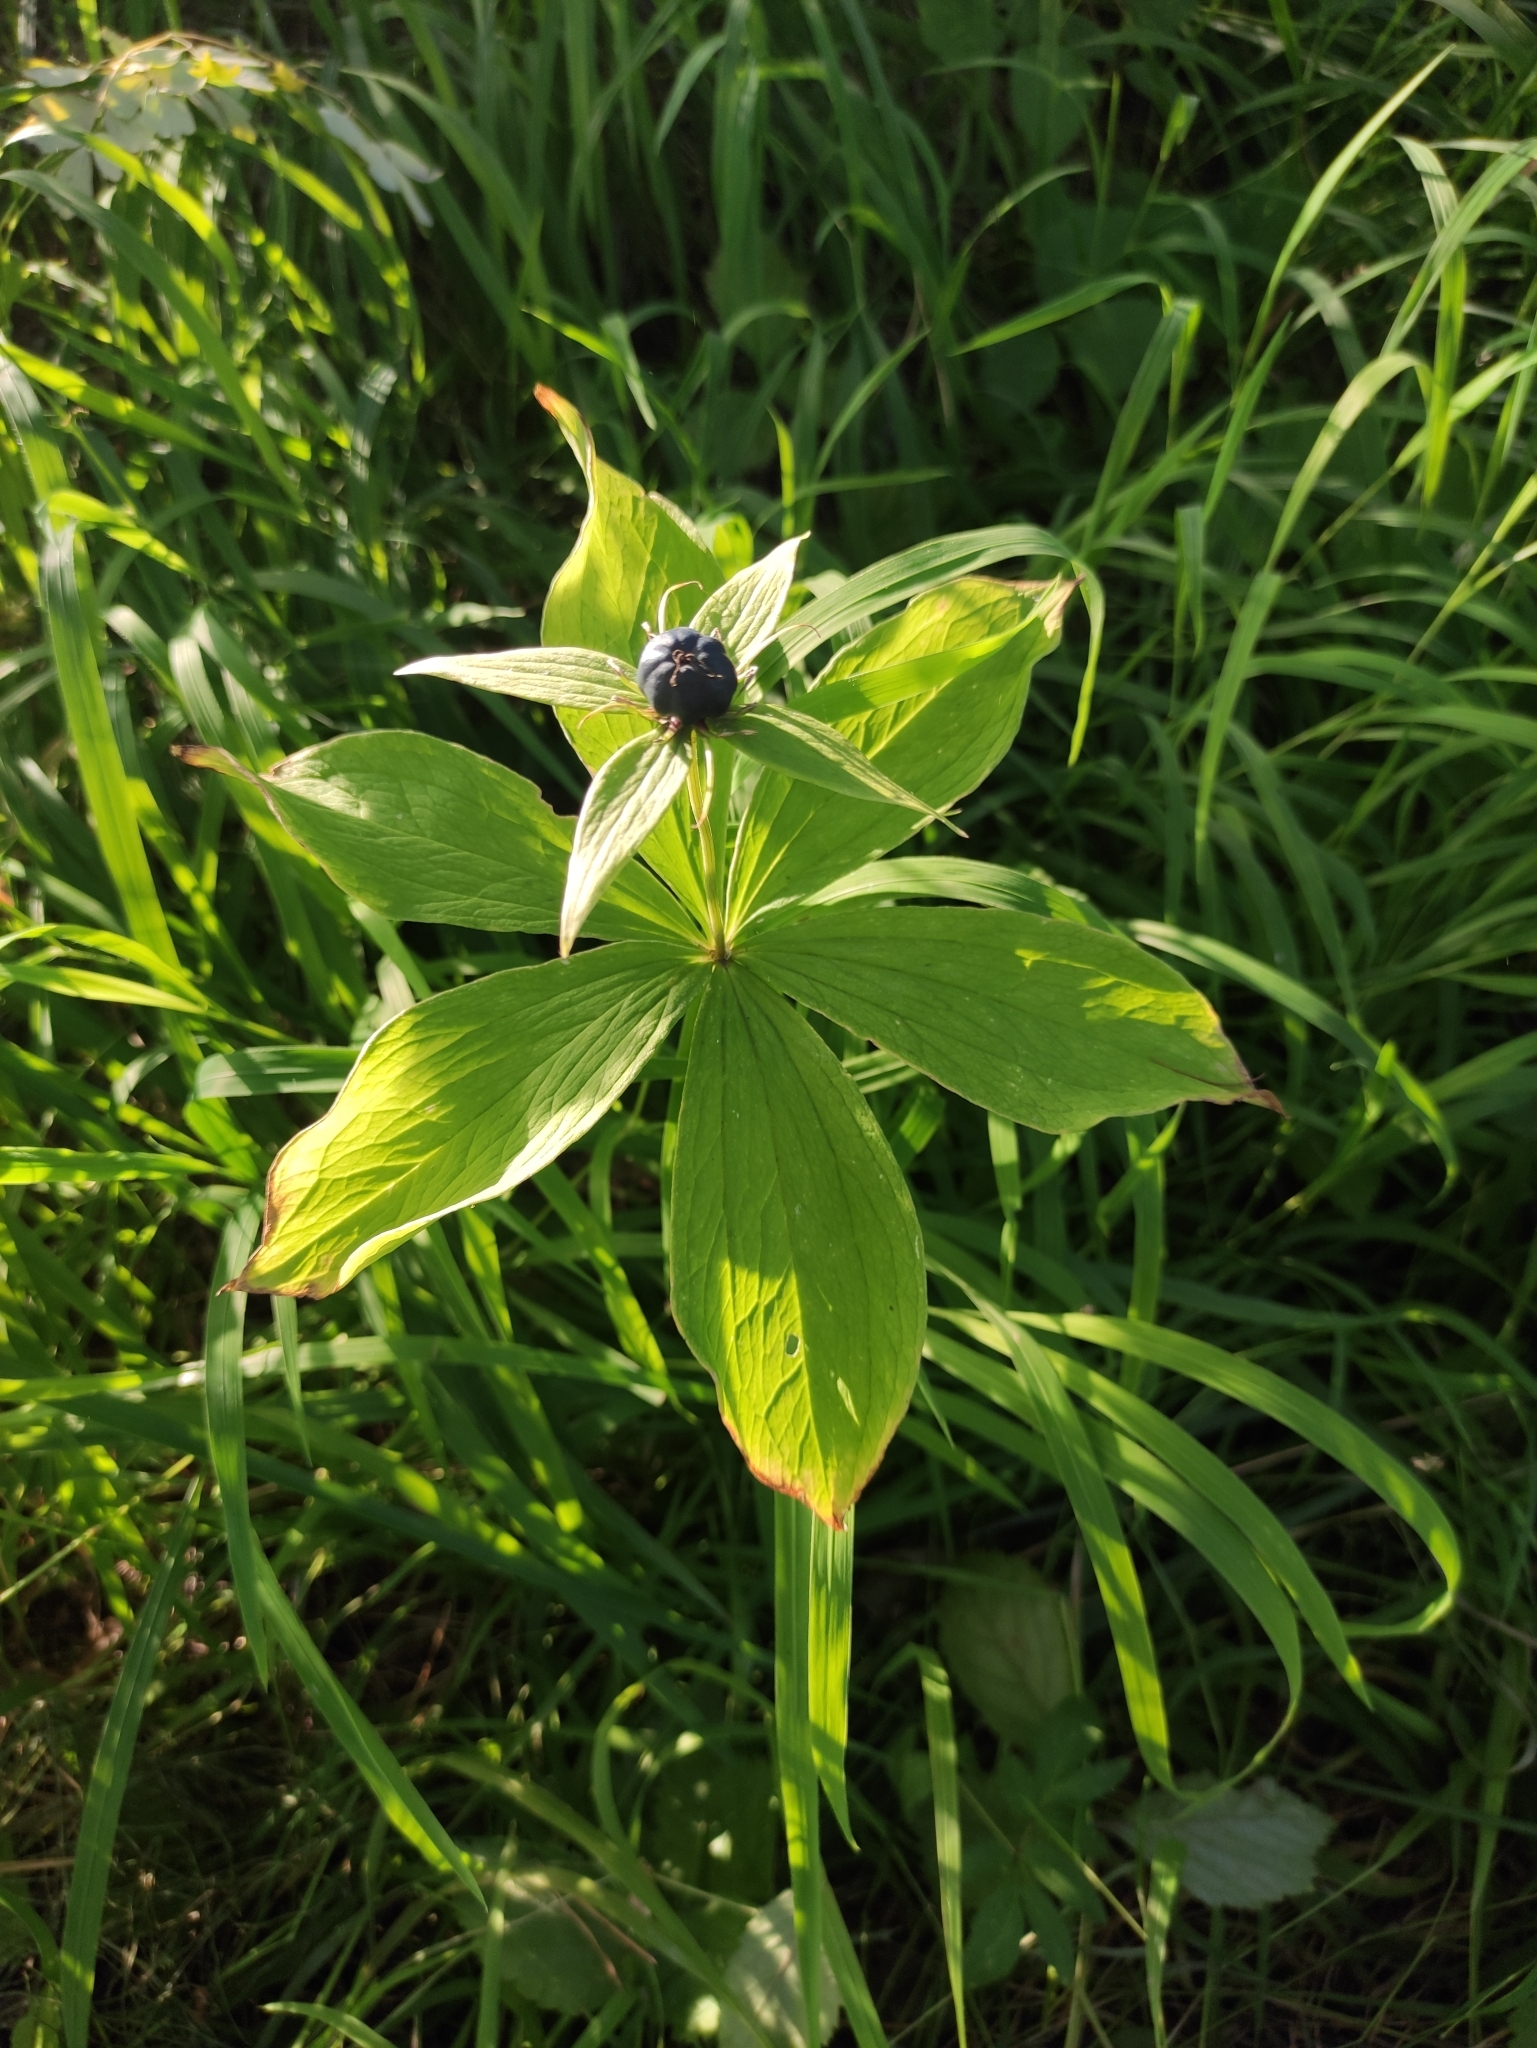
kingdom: Plantae
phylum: Tracheophyta
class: Liliopsida
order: Liliales
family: Melanthiaceae
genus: Paris
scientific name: Paris verticillata
